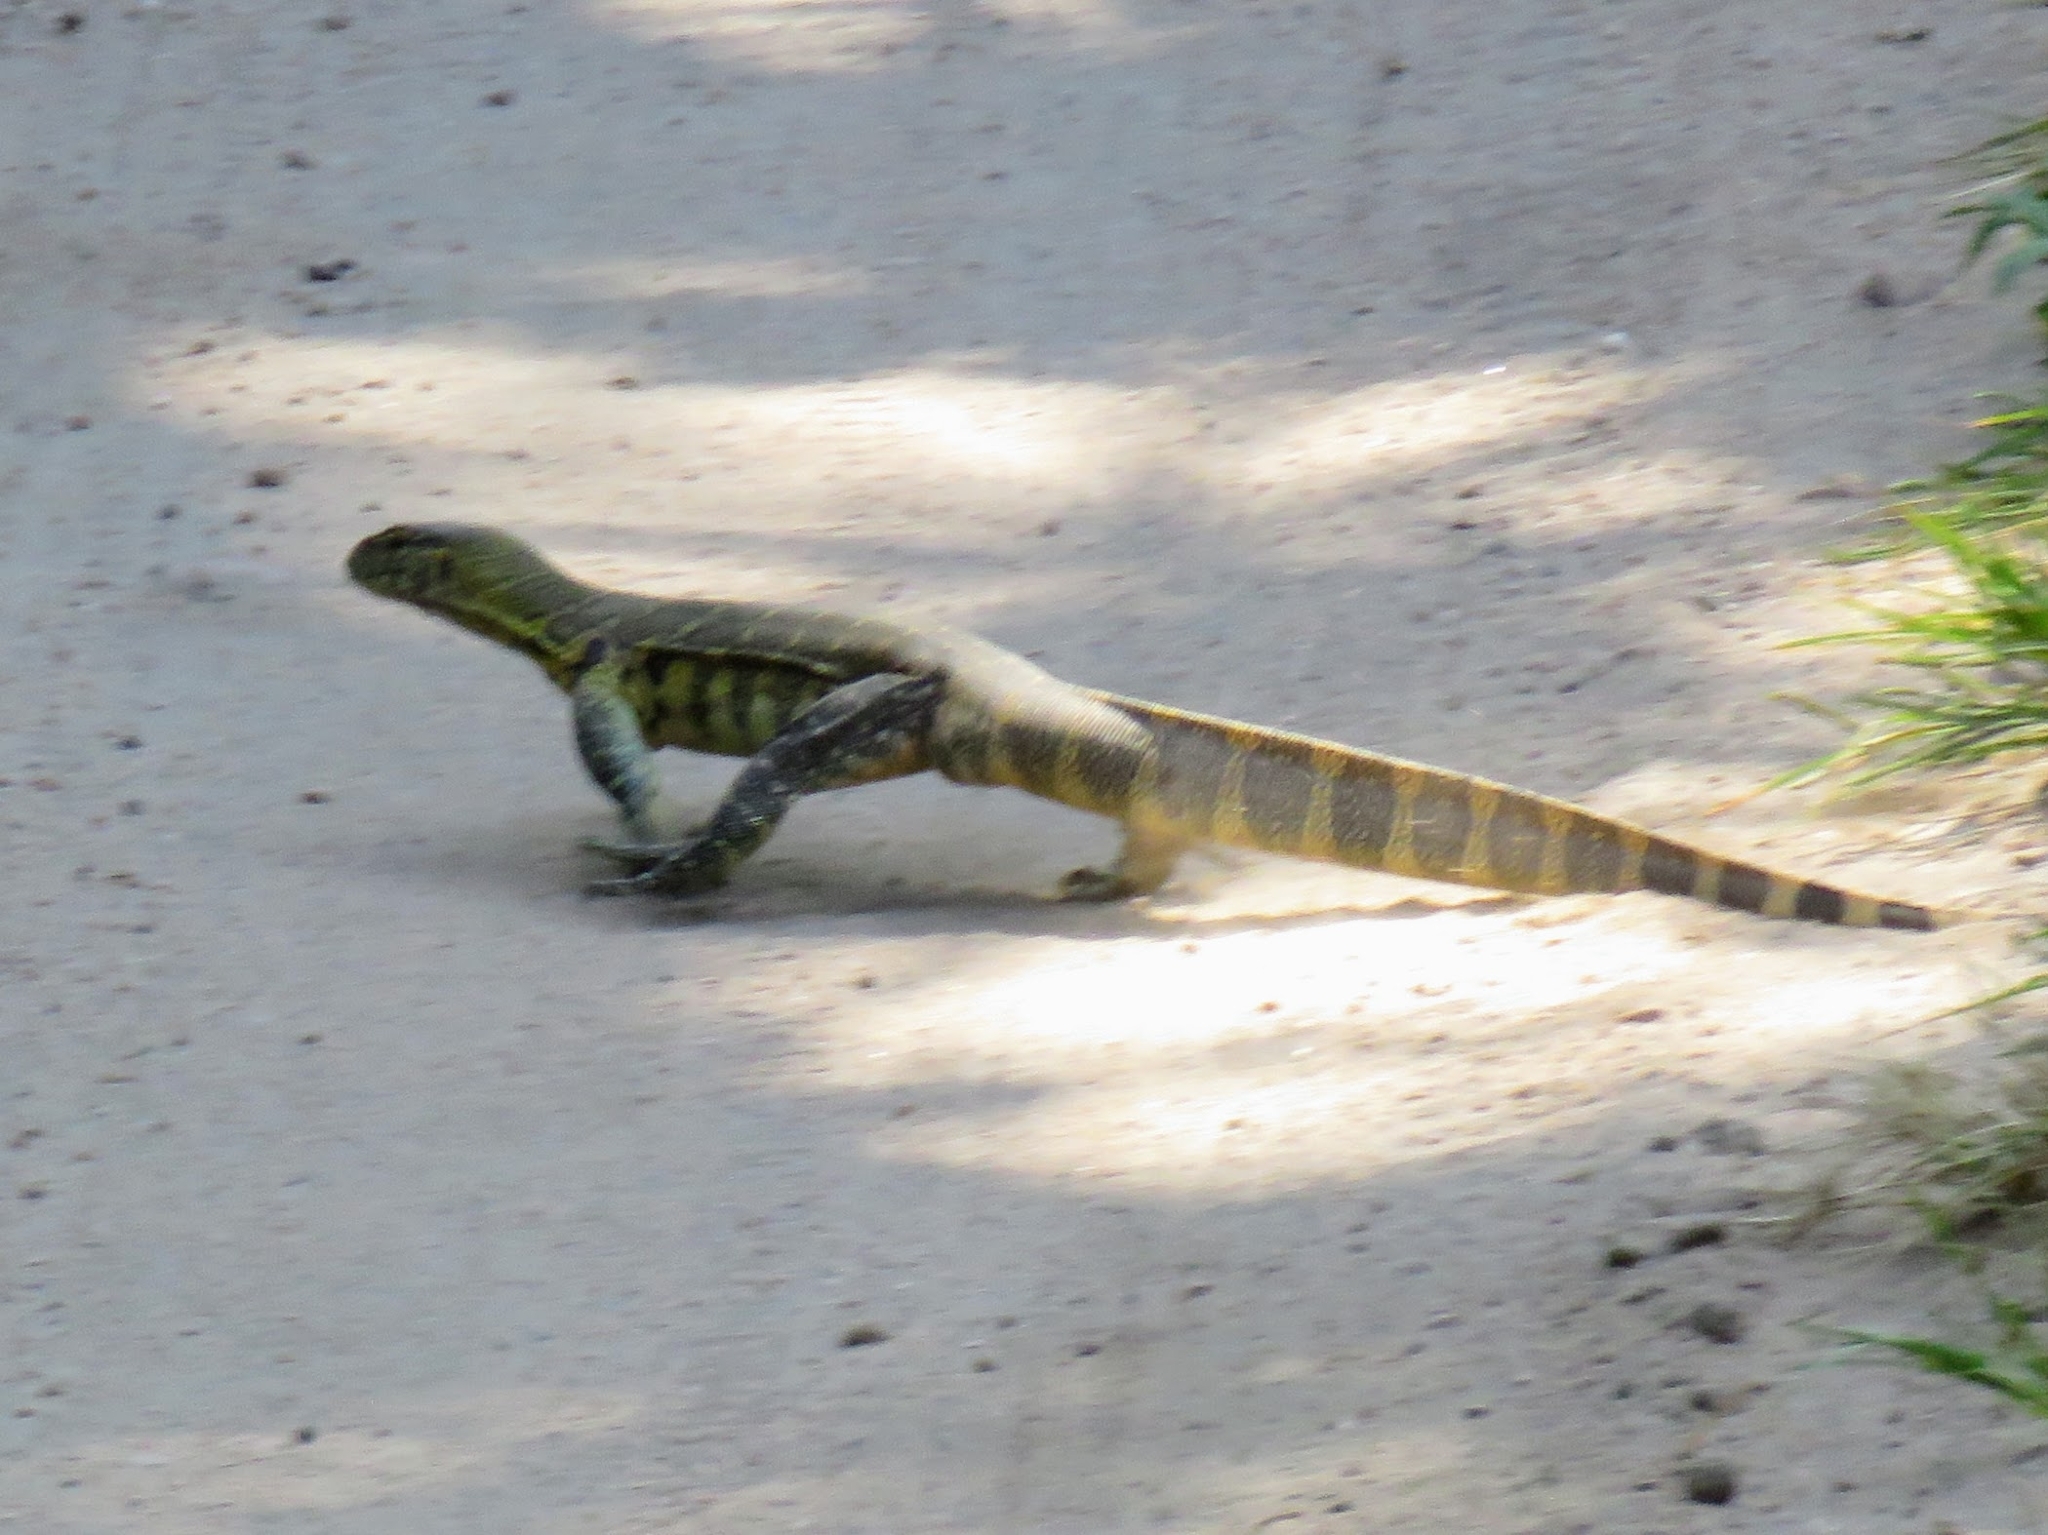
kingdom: Animalia
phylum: Chordata
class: Squamata
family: Varanidae
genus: Varanus
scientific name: Varanus niloticus
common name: Nile monitor
